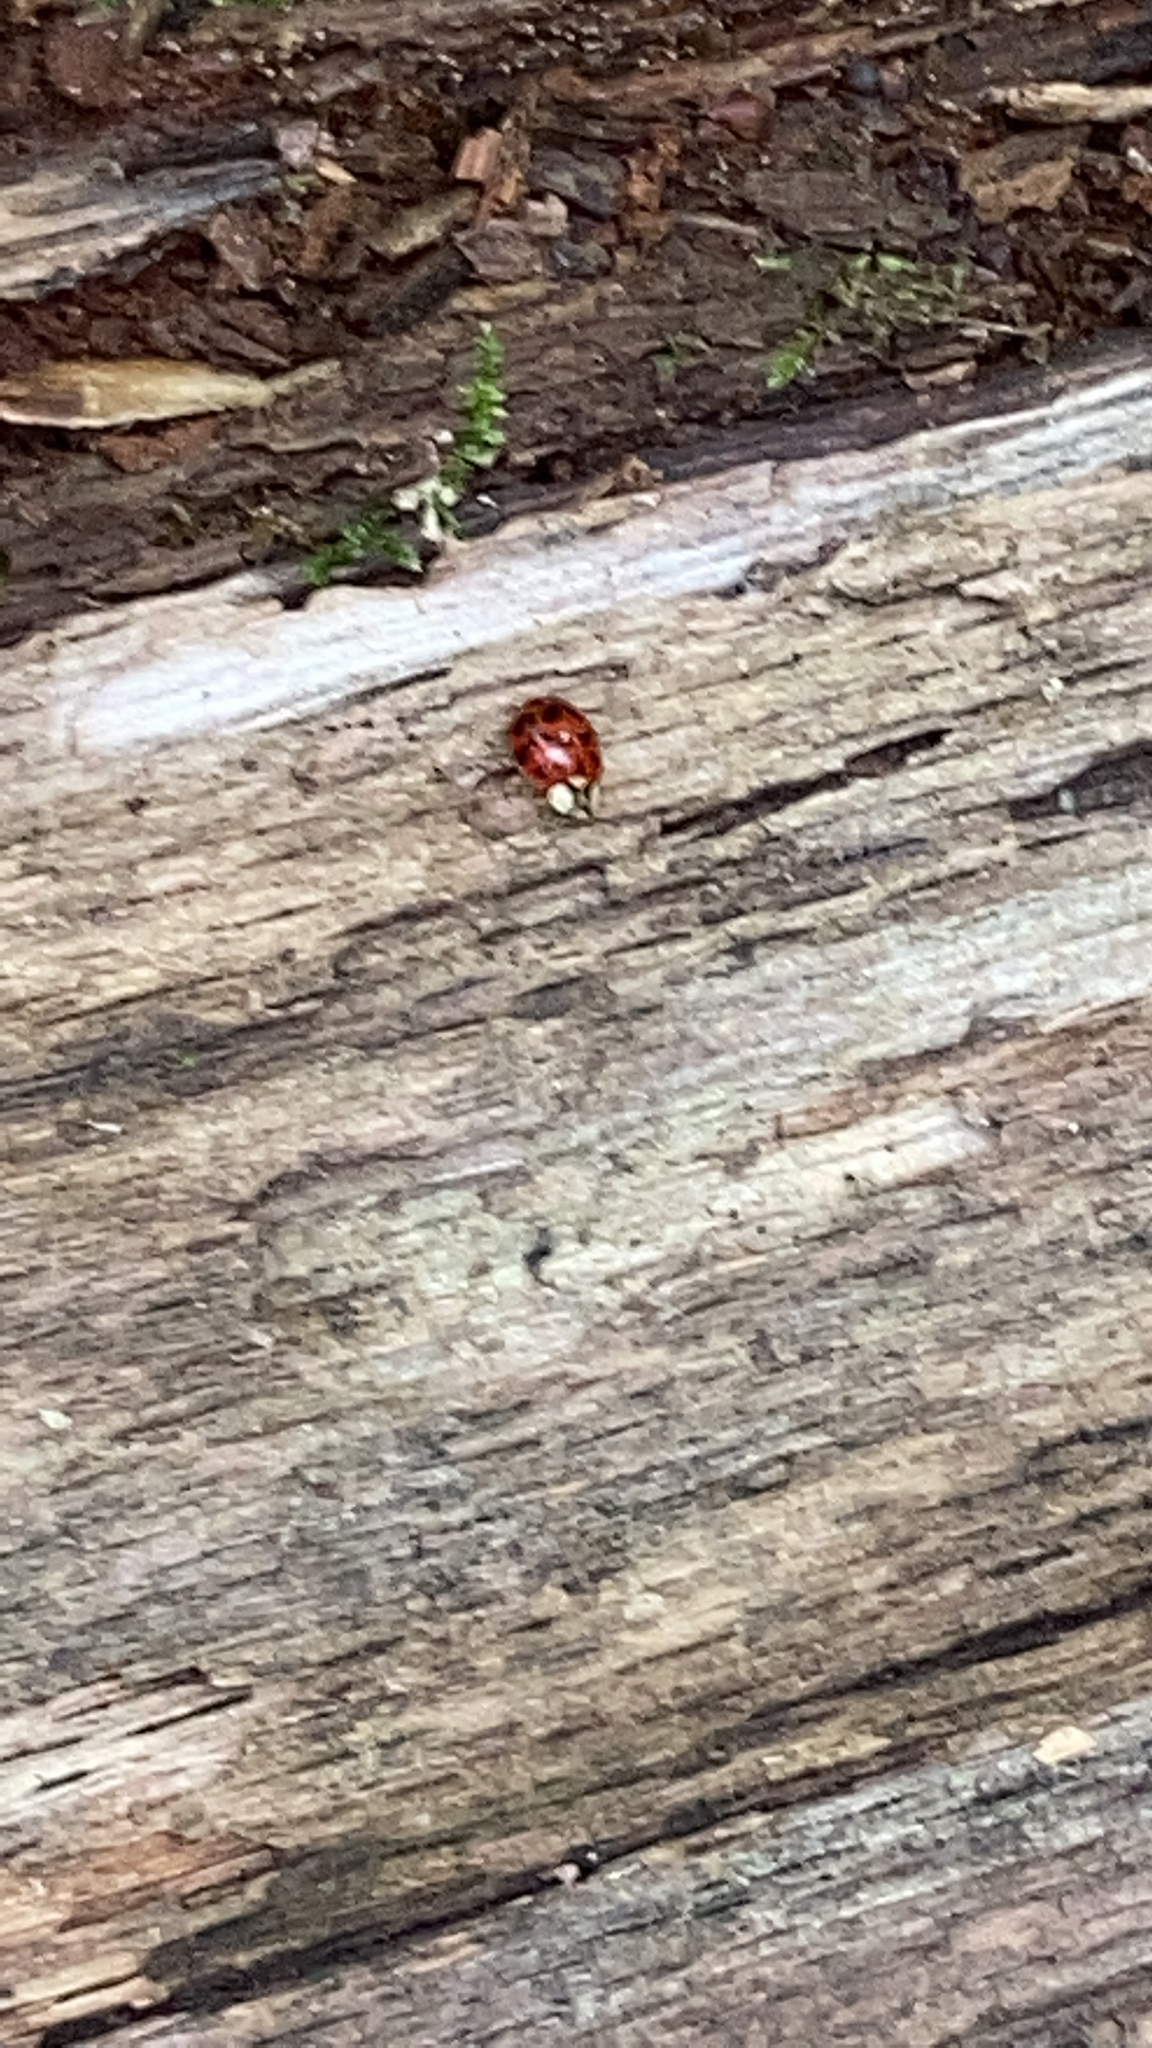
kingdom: Animalia
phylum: Arthropoda
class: Insecta
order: Coleoptera
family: Coccinellidae
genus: Harmonia
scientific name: Harmonia axyridis
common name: Harlequin ladybird
